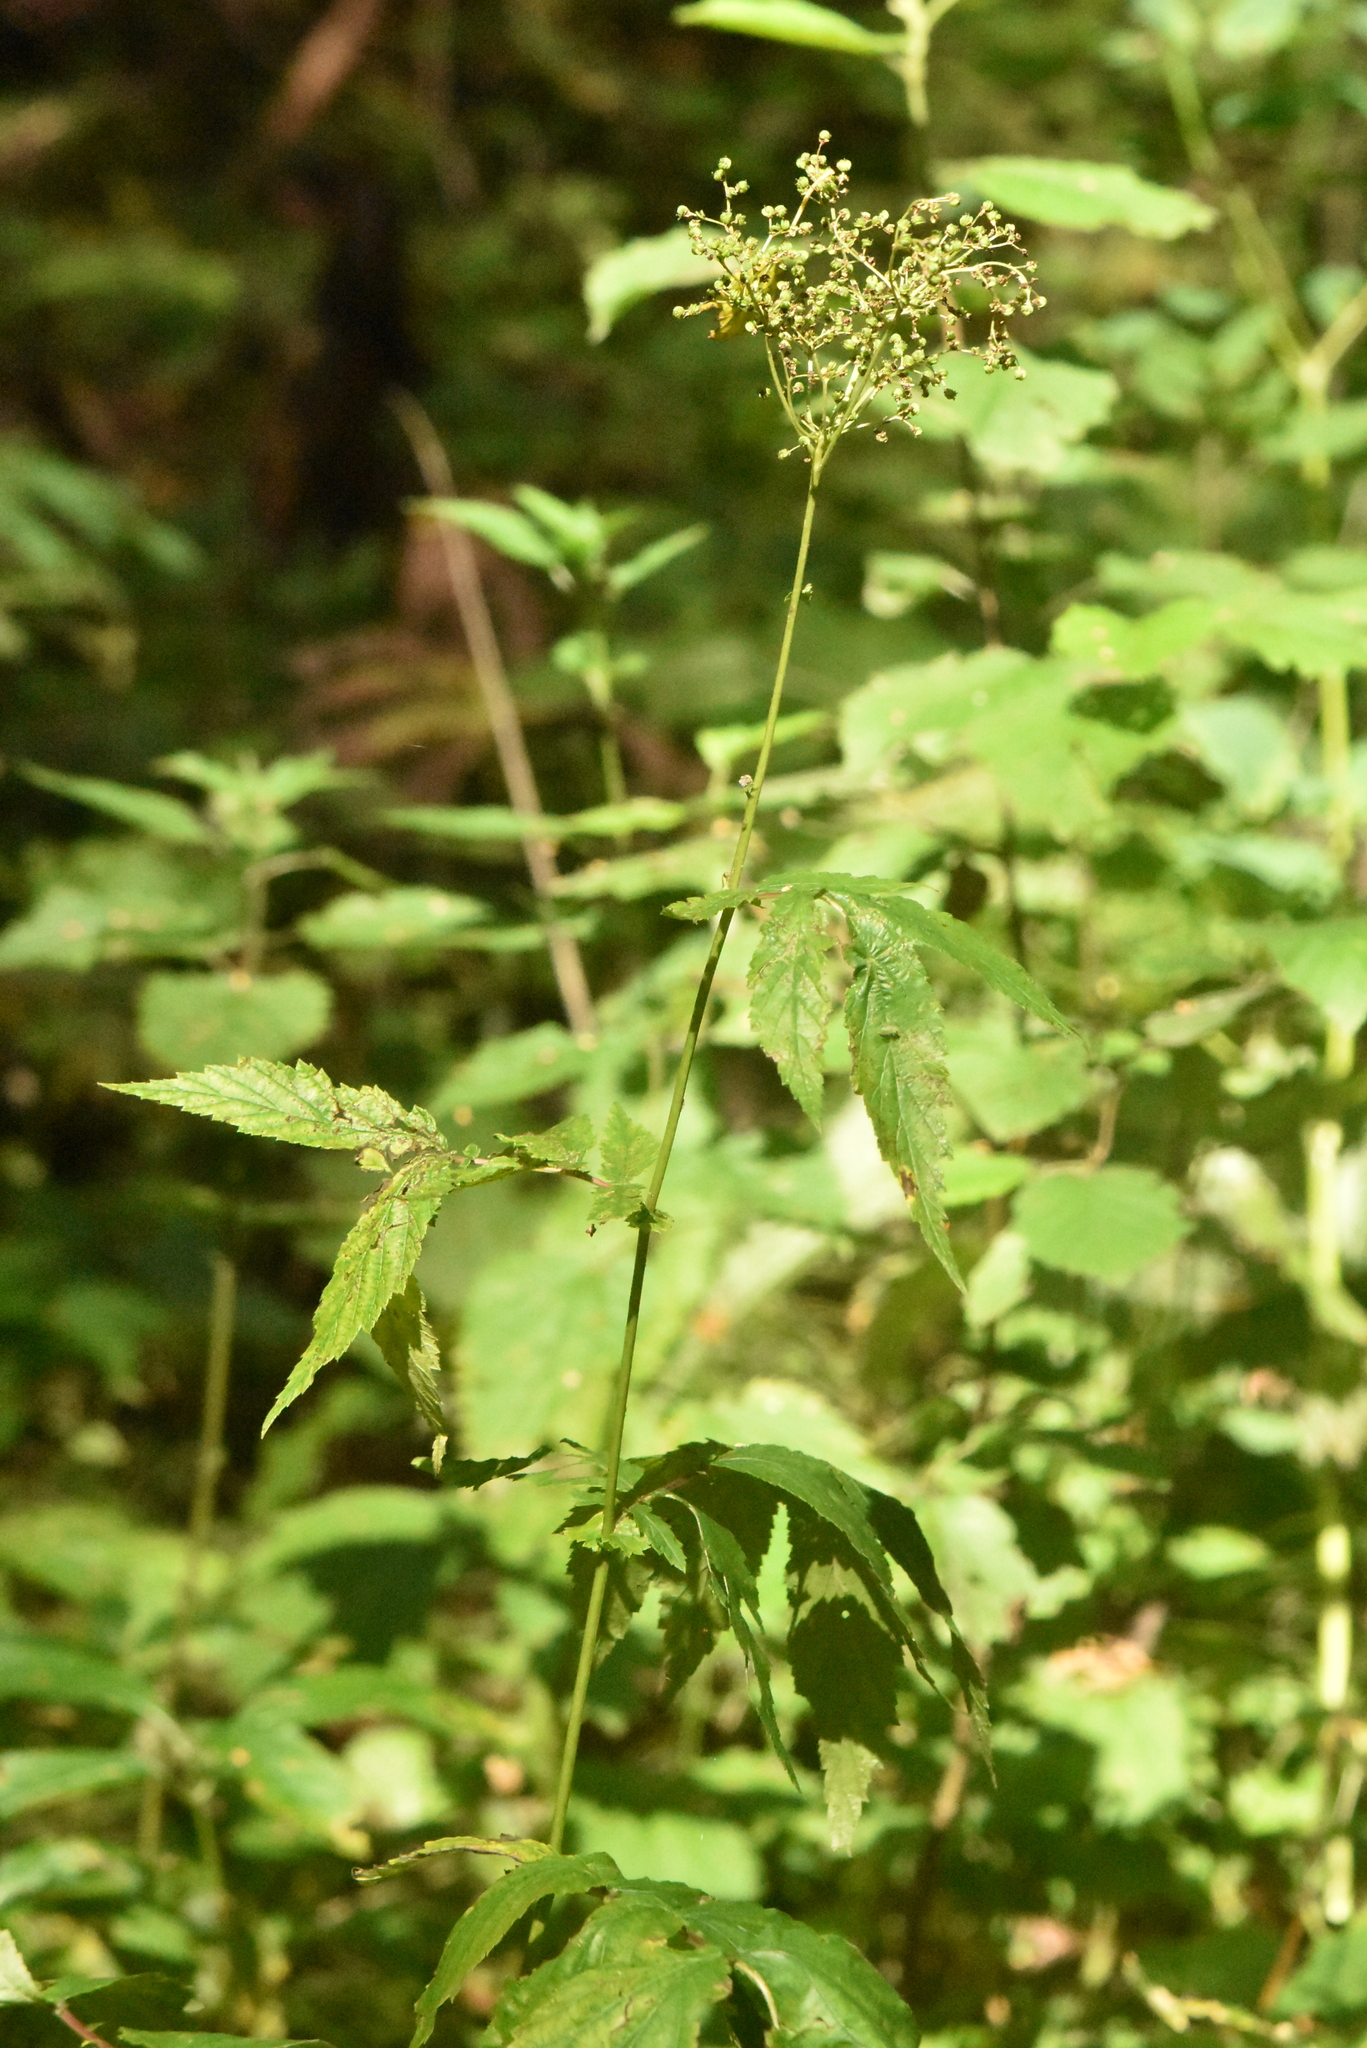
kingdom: Plantae
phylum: Tracheophyta
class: Magnoliopsida
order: Rosales
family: Rosaceae
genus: Filipendula
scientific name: Filipendula ulmaria
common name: Meadowsweet
